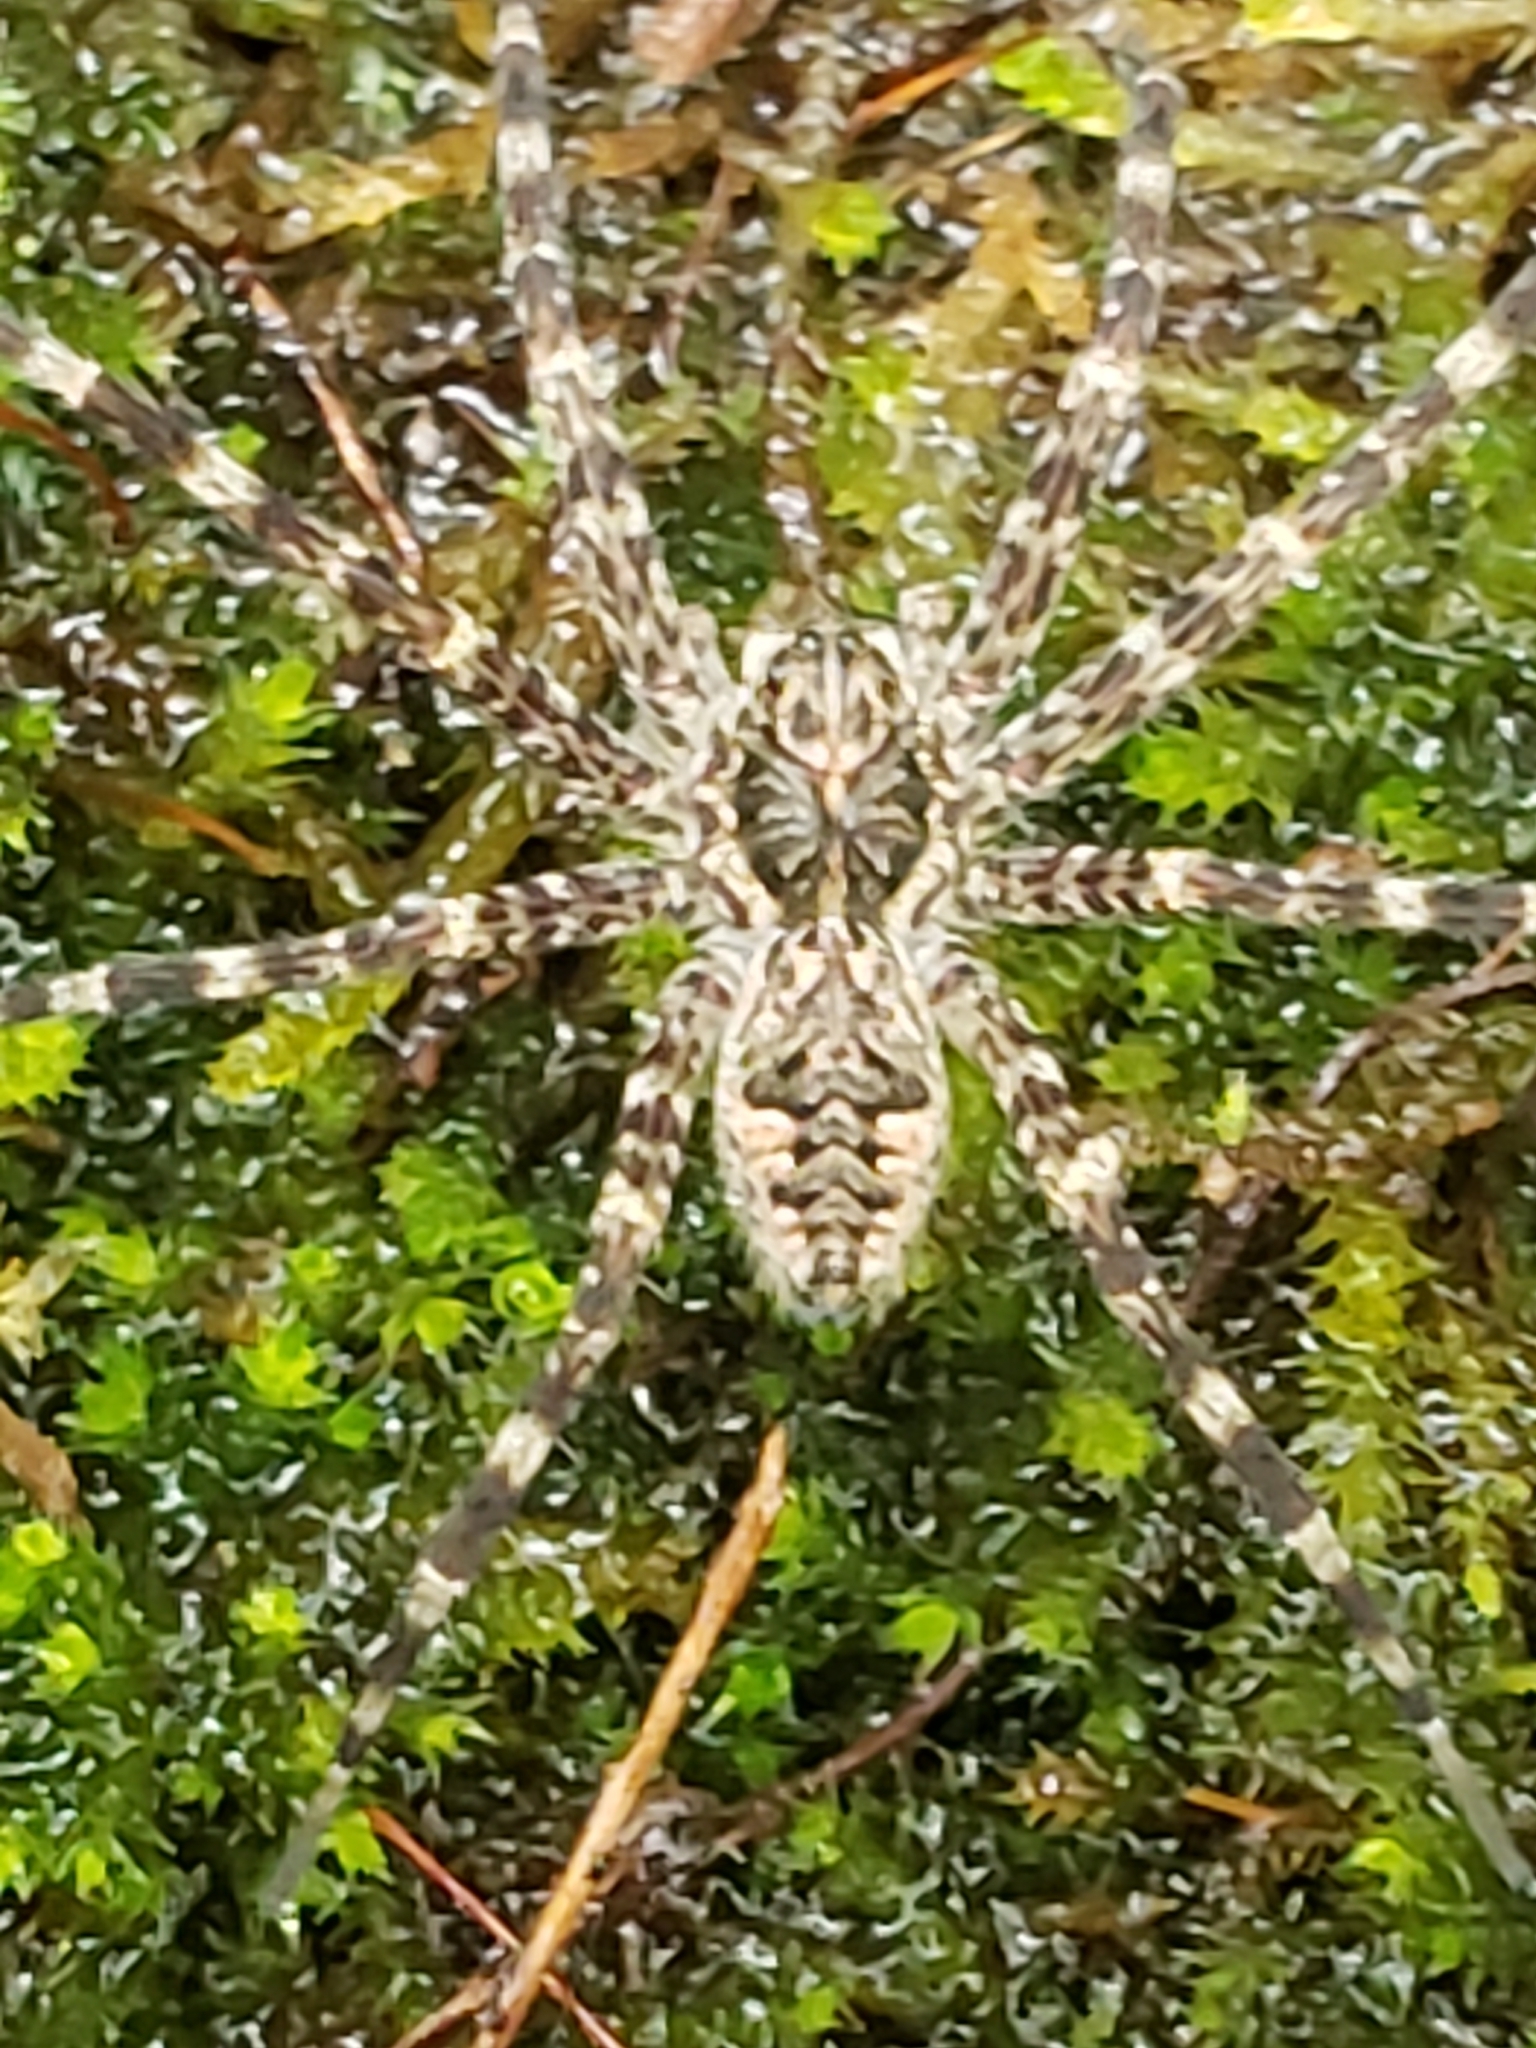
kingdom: Animalia
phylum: Arthropoda
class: Arachnida
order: Araneae
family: Pisauridae
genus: Dolomedes
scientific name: Dolomedes tenebrosus
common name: Dark fishing spider
